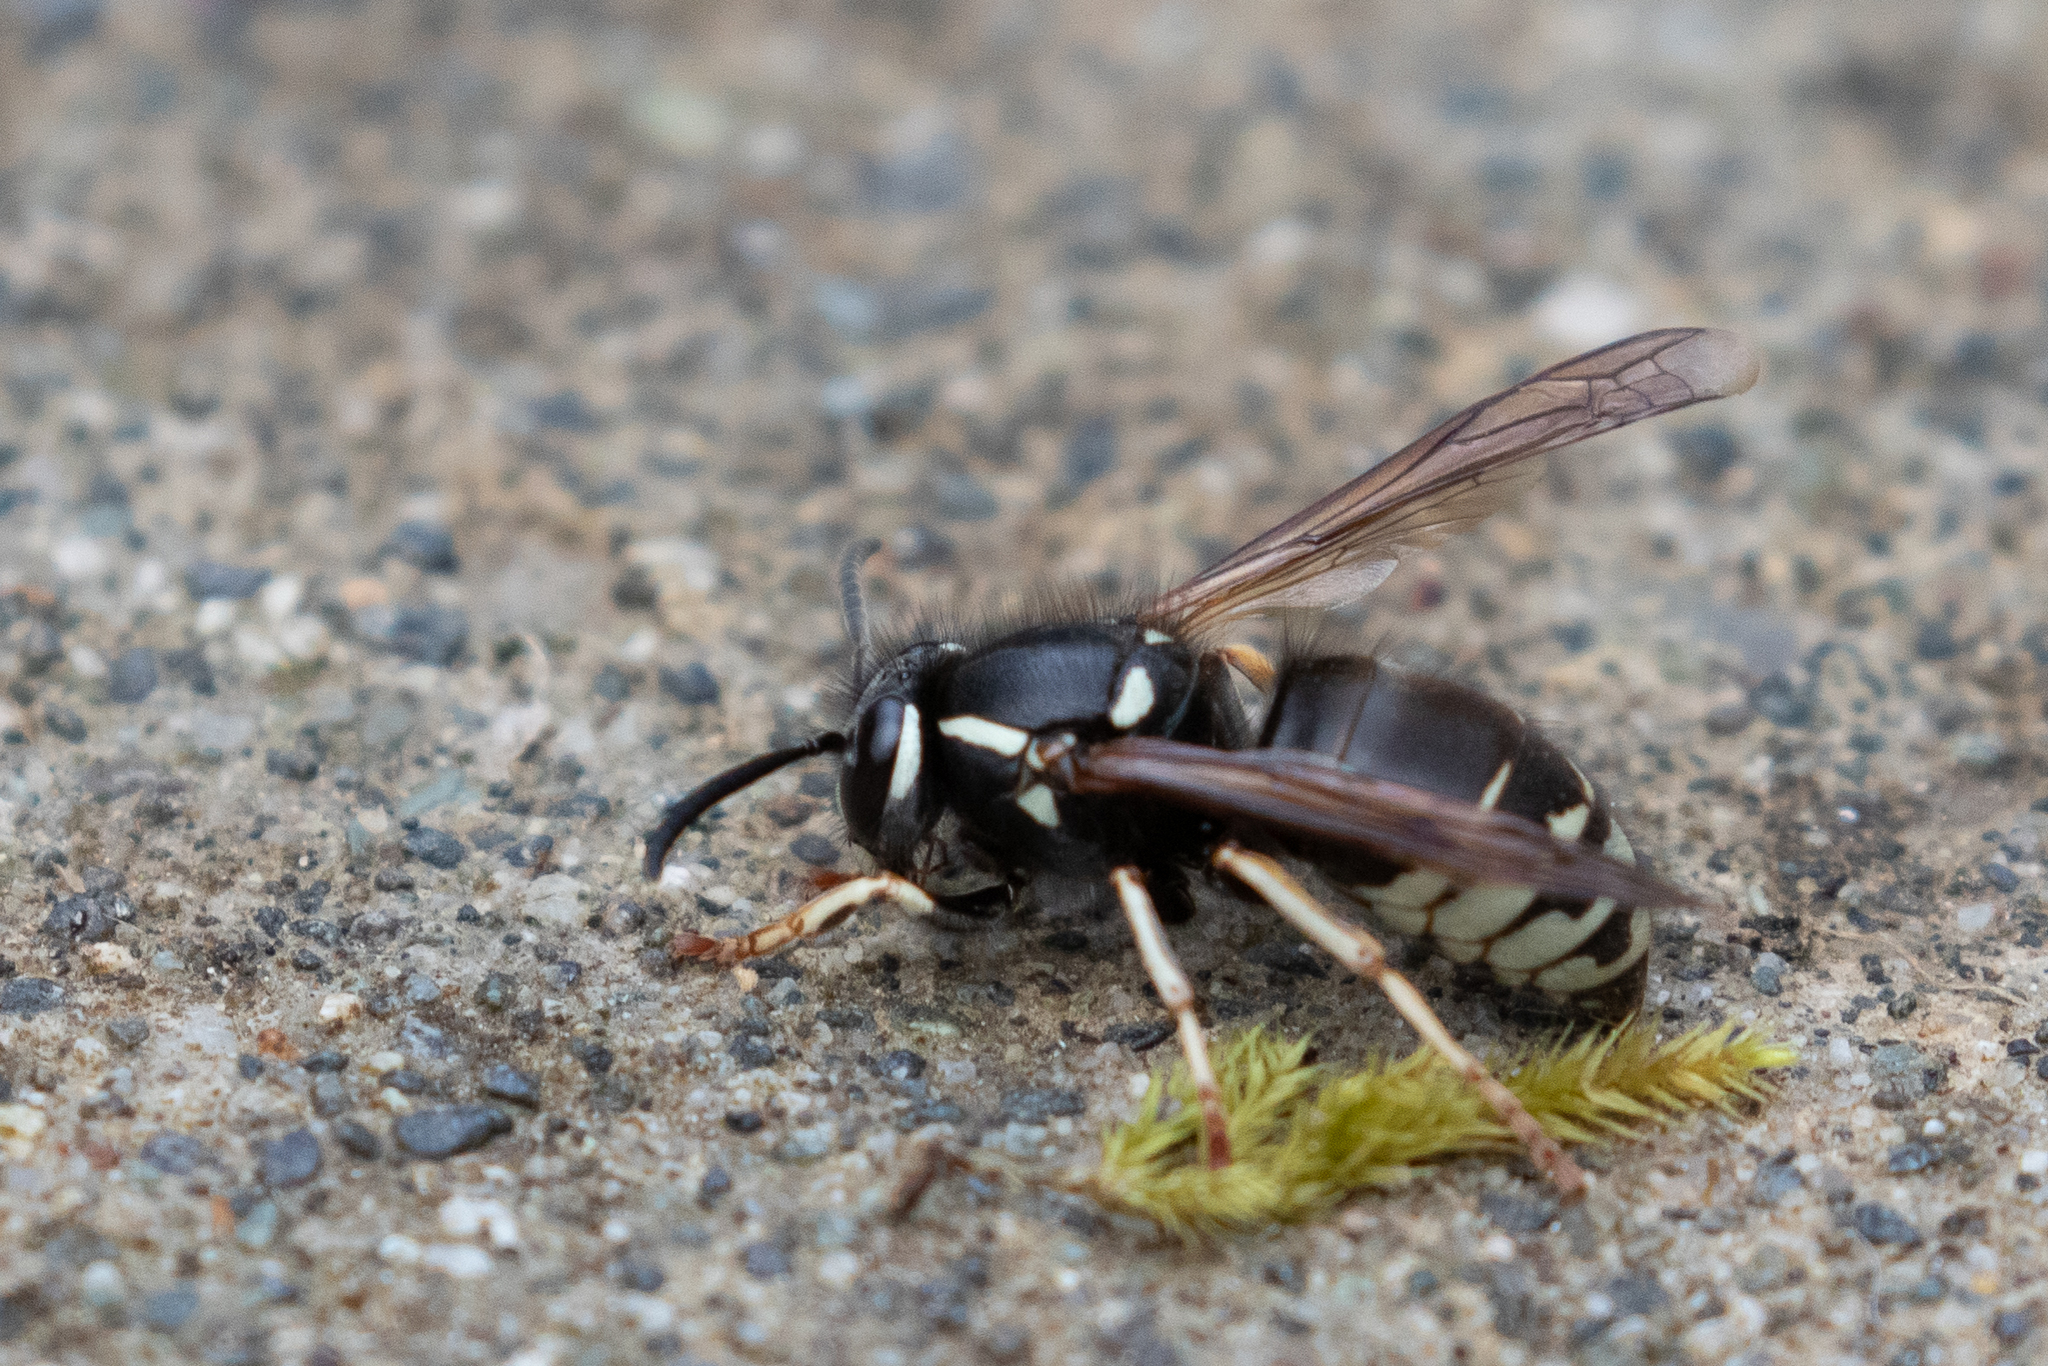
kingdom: Animalia
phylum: Arthropoda
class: Insecta
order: Hymenoptera
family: Vespidae
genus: Vespula
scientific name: Vespula consobrina
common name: Blackjacket
